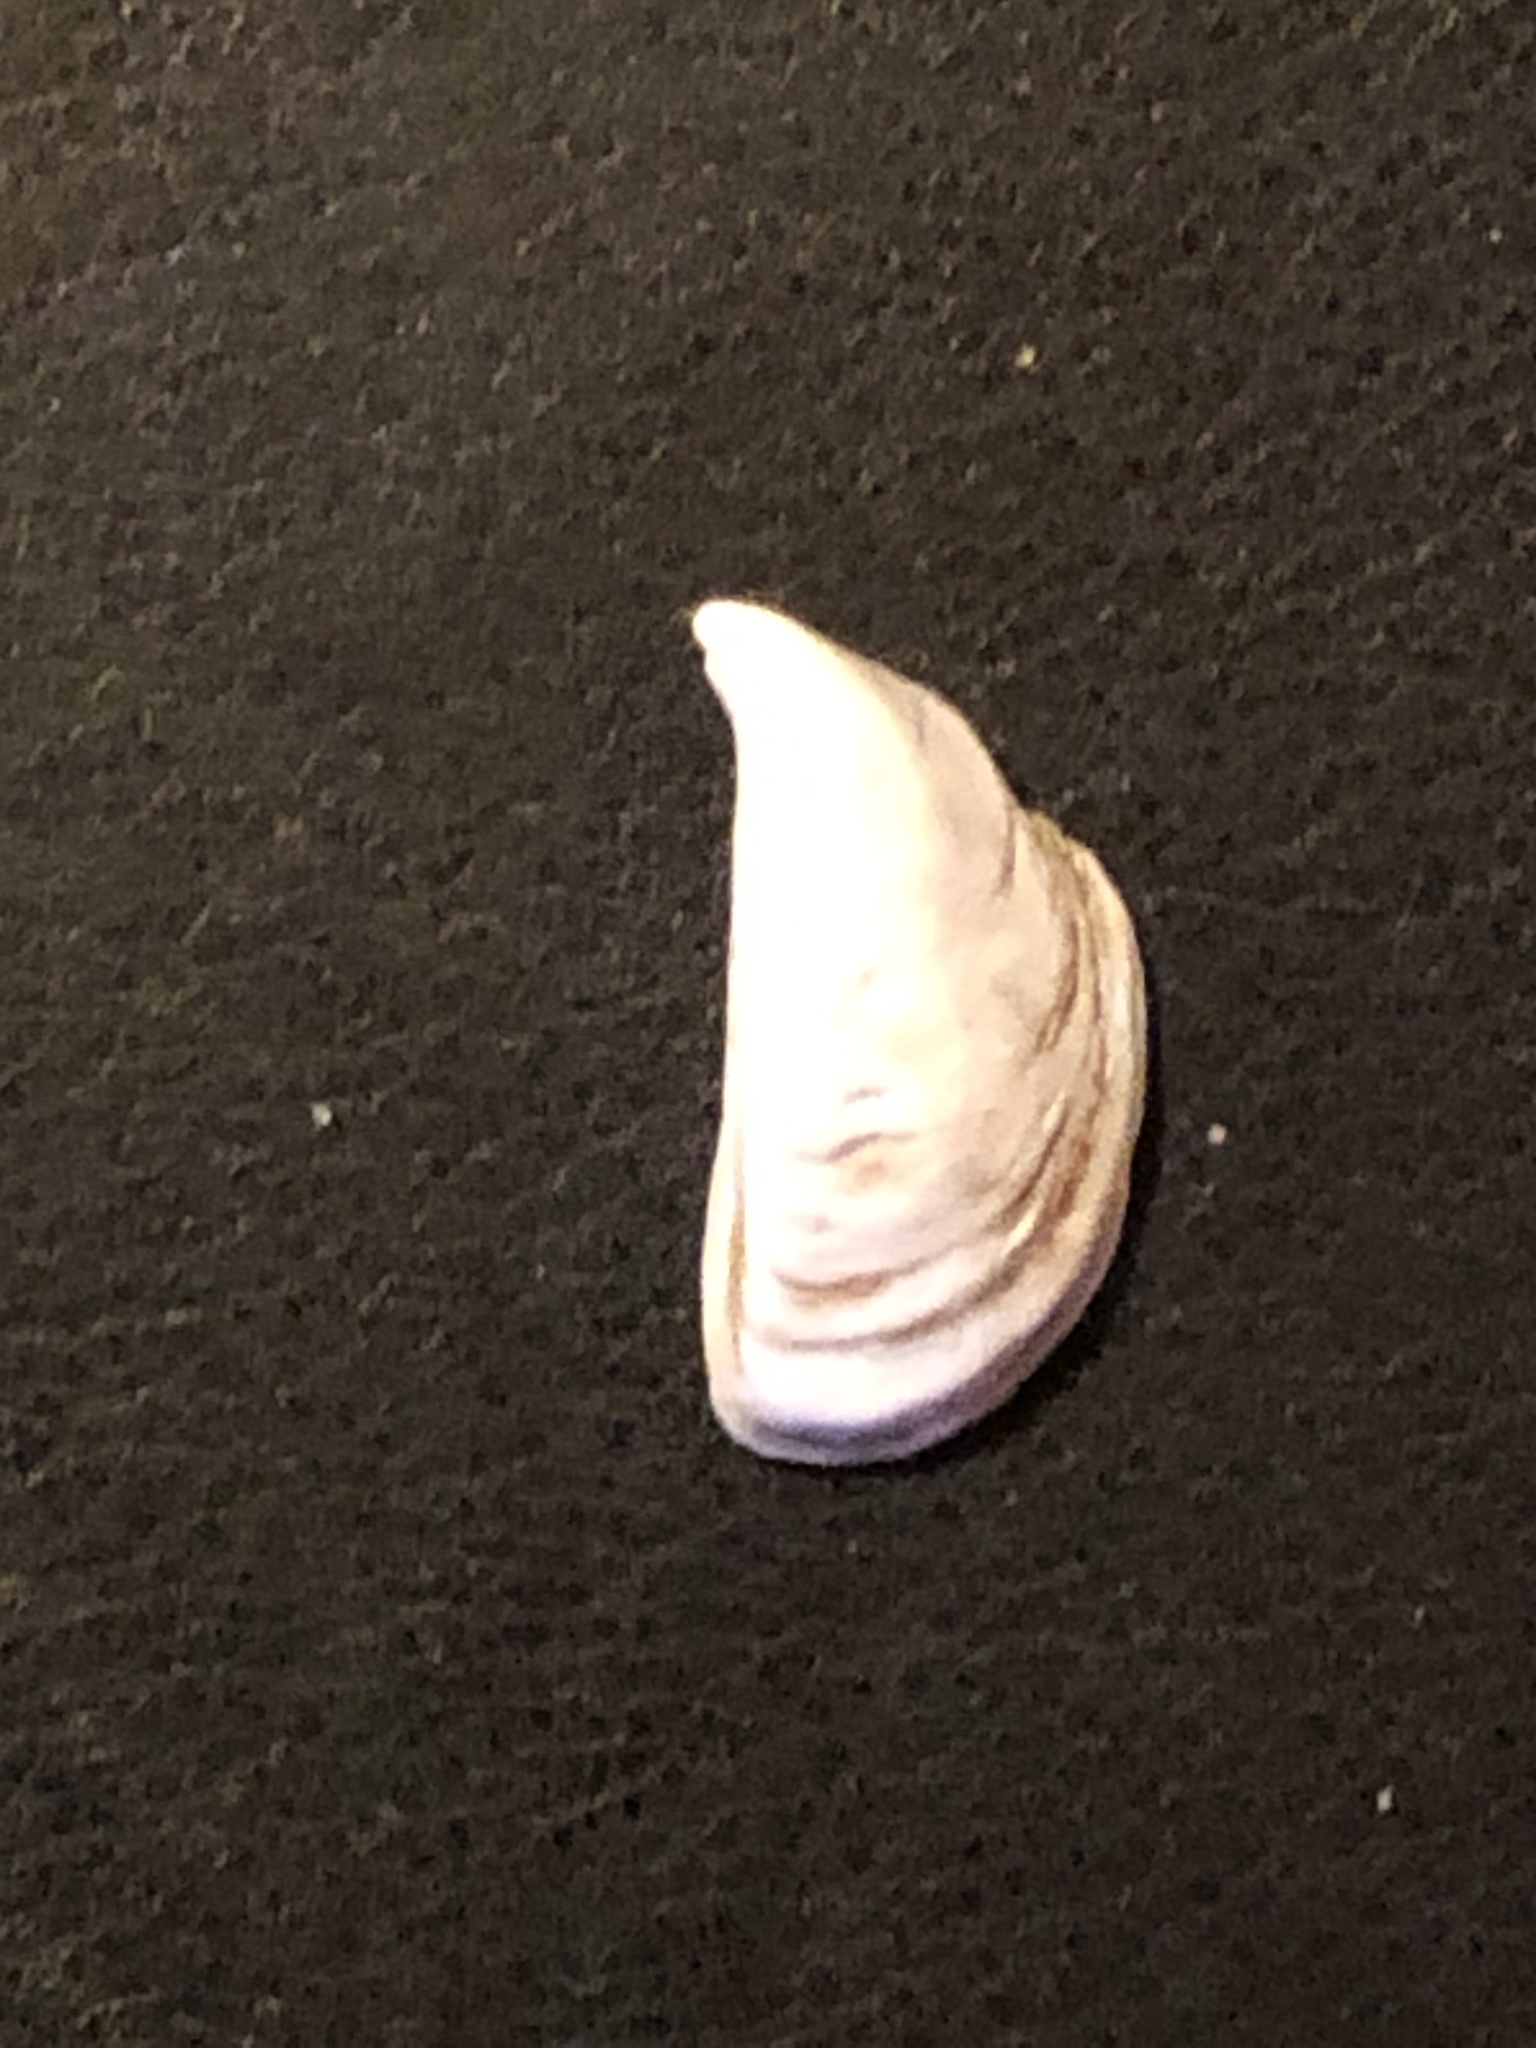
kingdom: Animalia
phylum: Mollusca
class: Bivalvia
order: Myida
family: Dreissenidae
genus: Dreissena
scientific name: Dreissena polymorpha
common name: Zebra mussel
